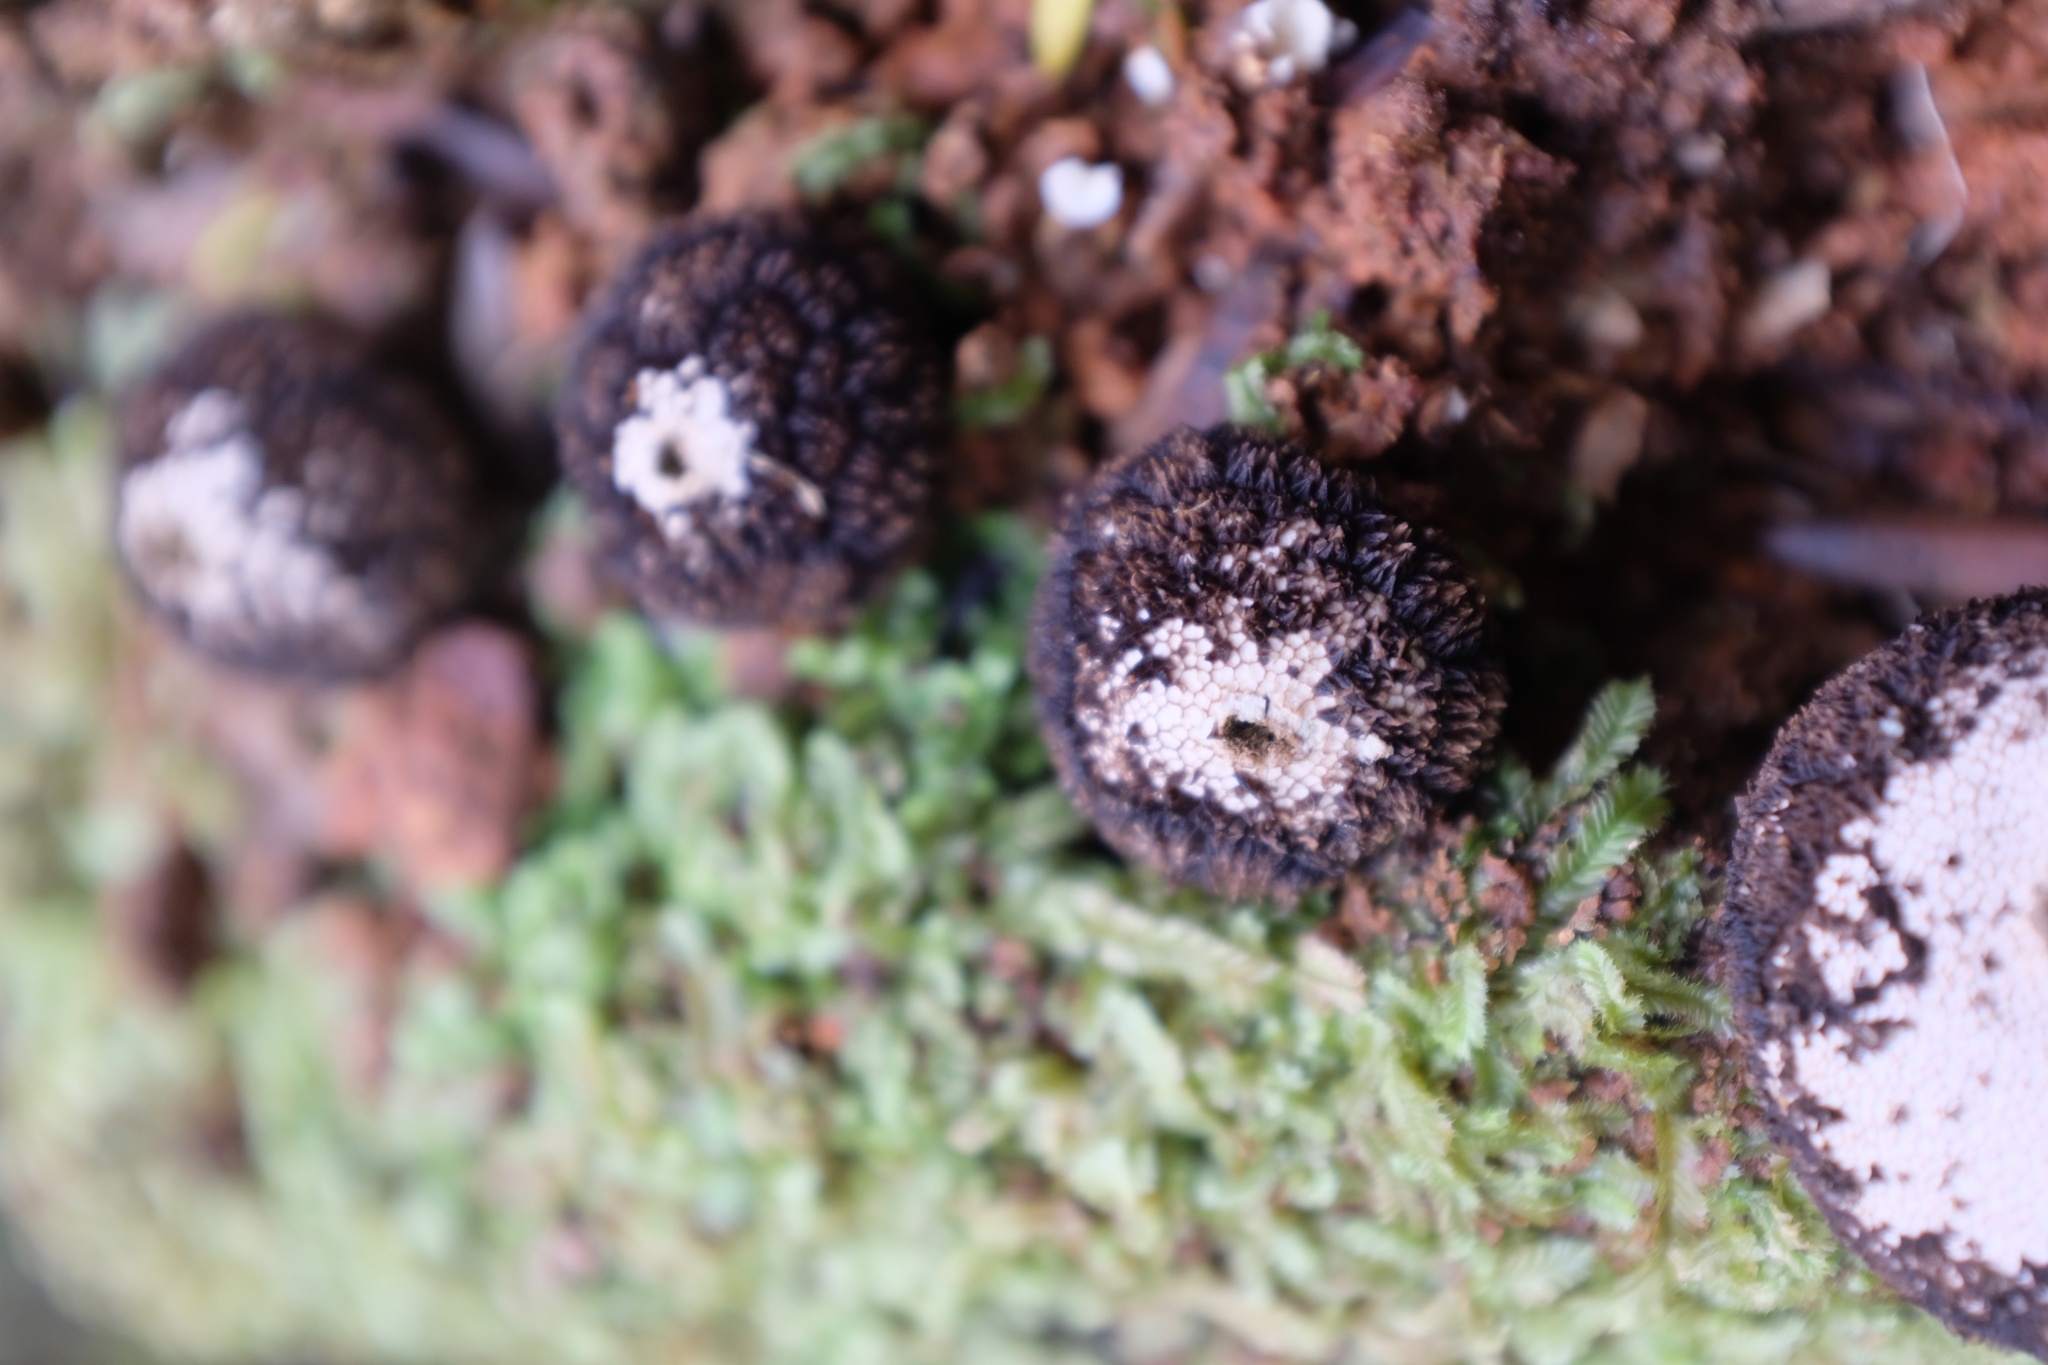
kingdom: Fungi
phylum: Basidiomycota
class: Agaricomycetes
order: Agaricales
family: Lycoperdaceae
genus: Lycoperdon
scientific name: Lycoperdon compactum
